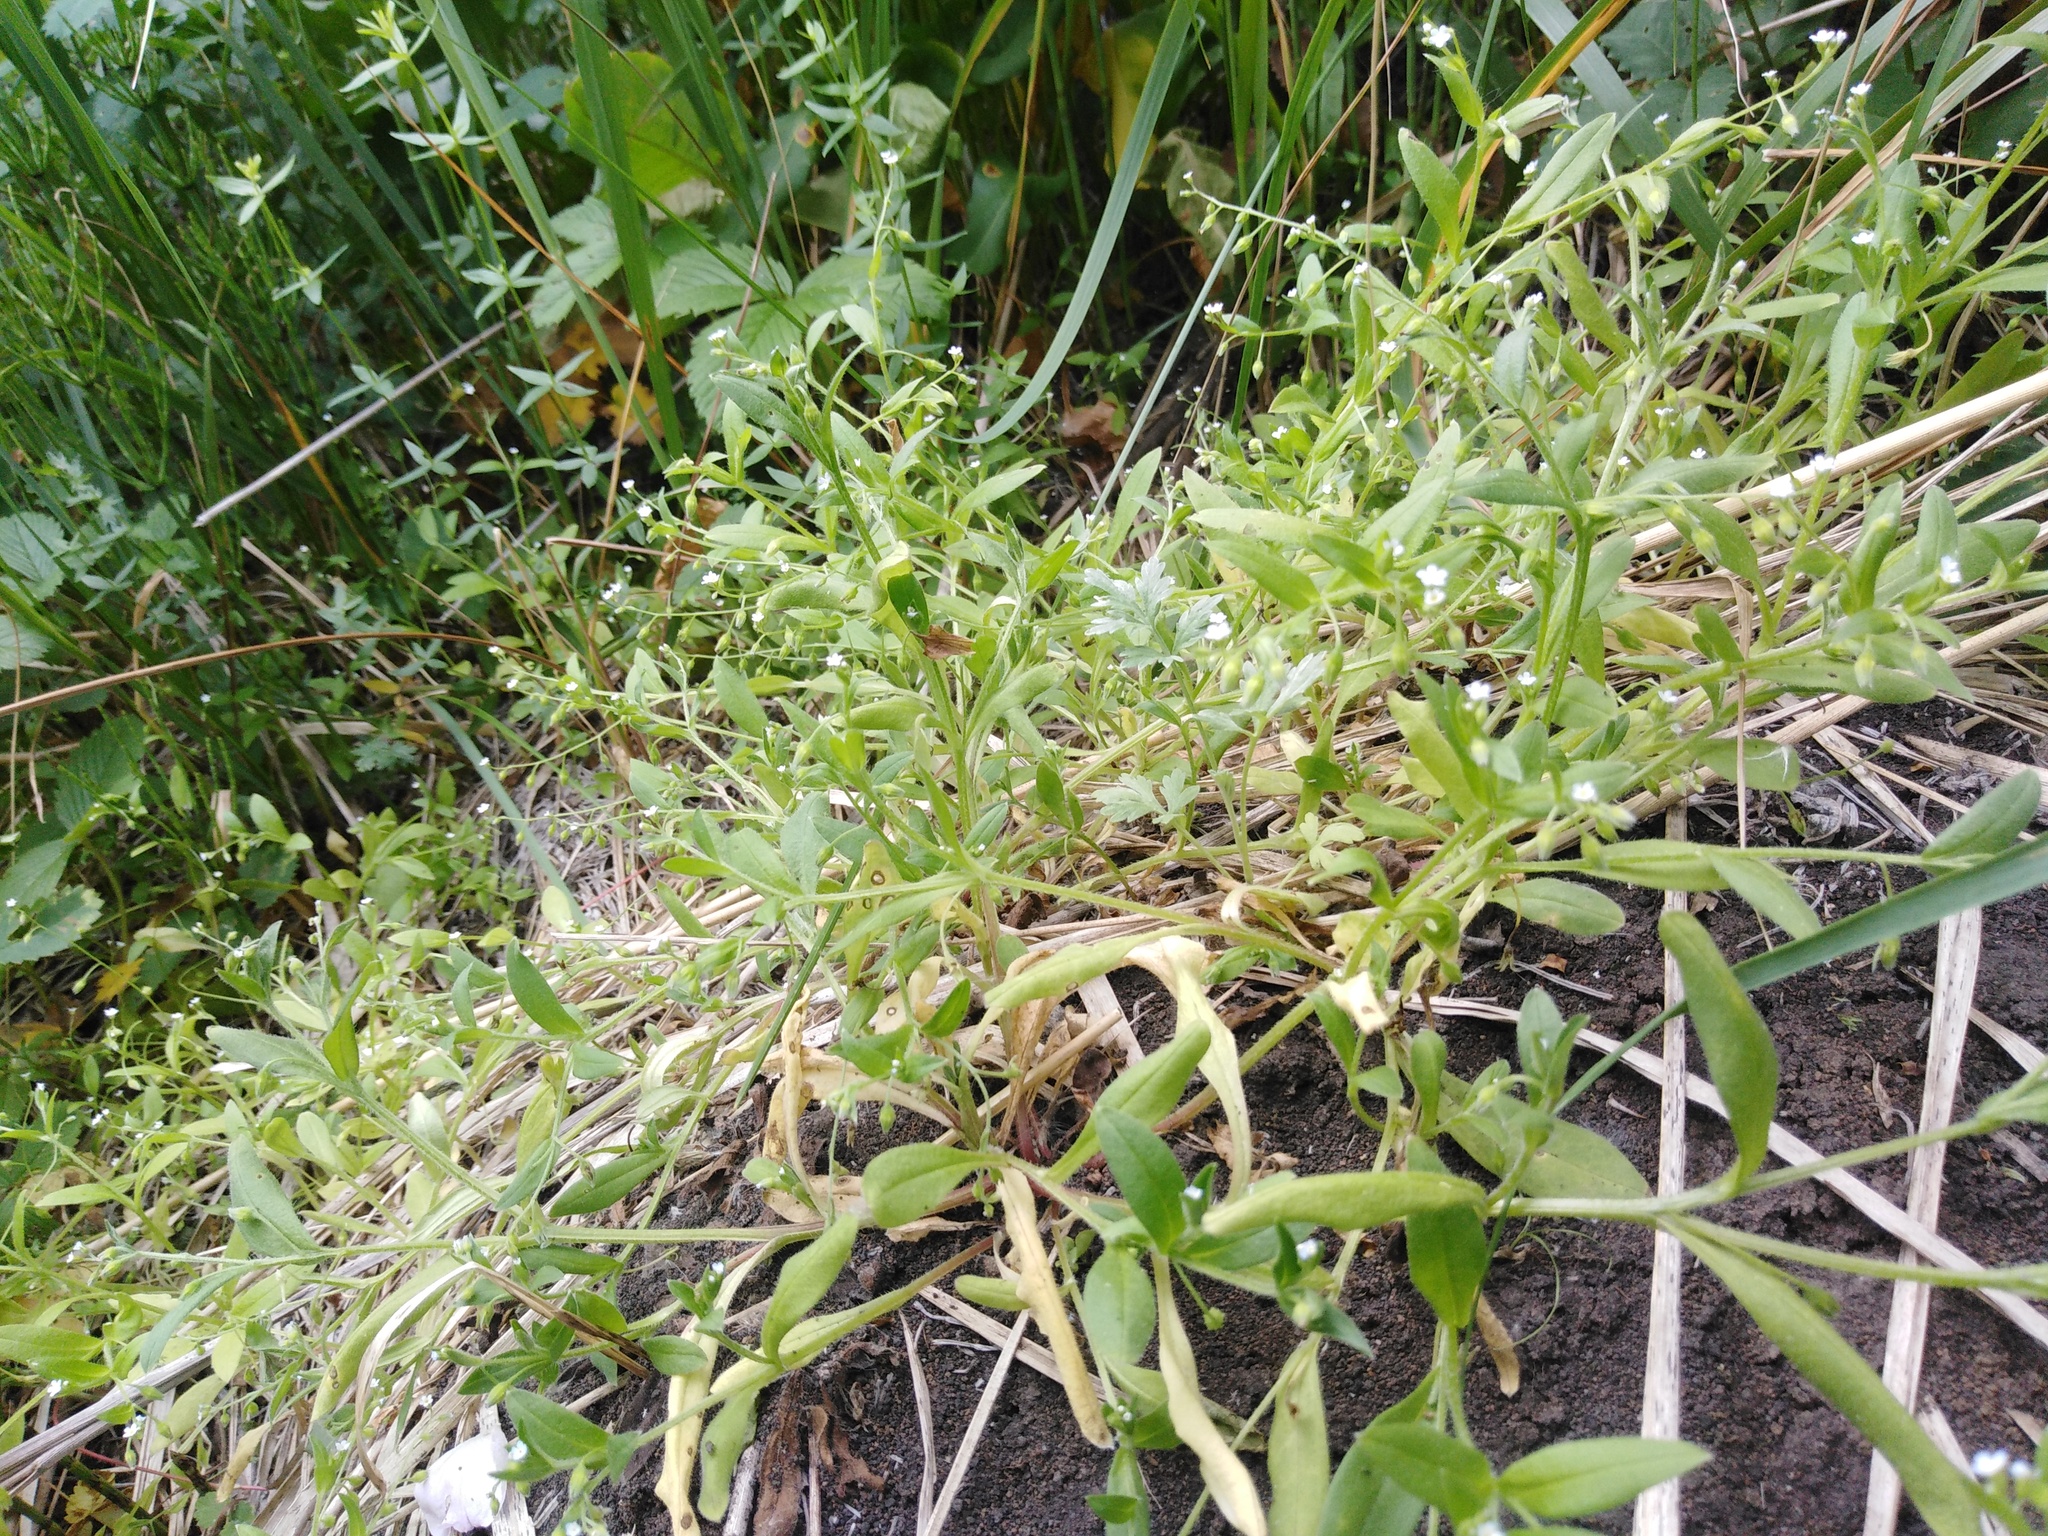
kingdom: Plantae
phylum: Tracheophyta
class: Magnoliopsida
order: Boraginales
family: Boraginaceae
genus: Myosotis
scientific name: Myosotis sparsiflora
